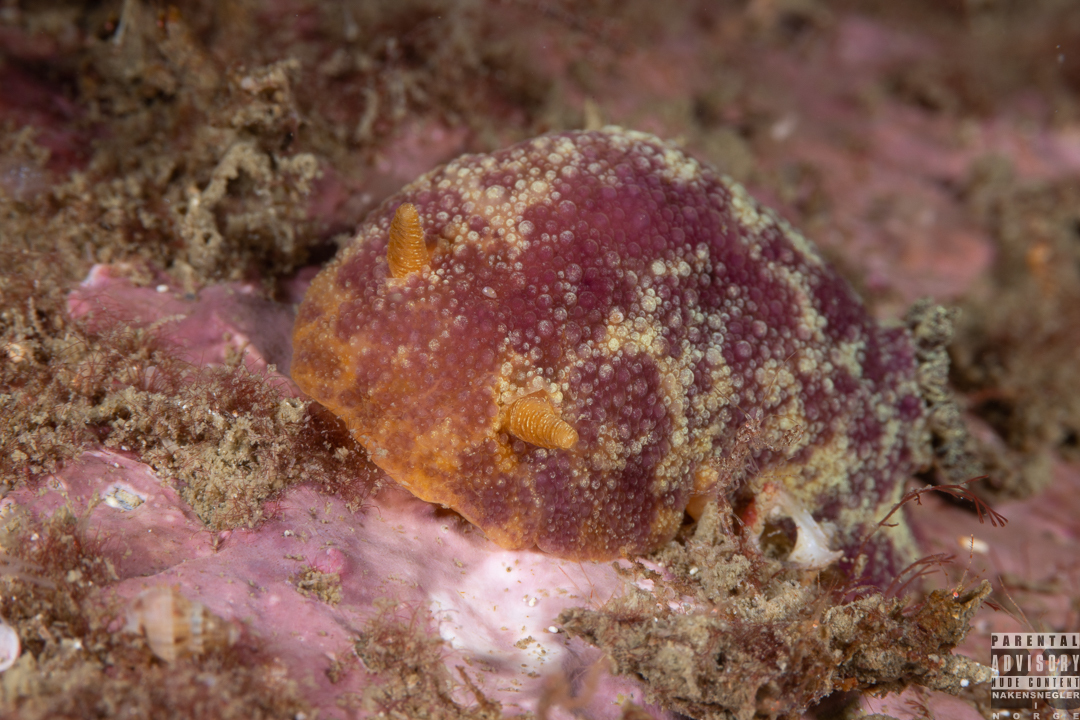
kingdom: Animalia
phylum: Mollusca
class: Gastropoda
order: Nudibranchia
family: Dorididae
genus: Doris
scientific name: Doris pseudoargus
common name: Sea lemon
